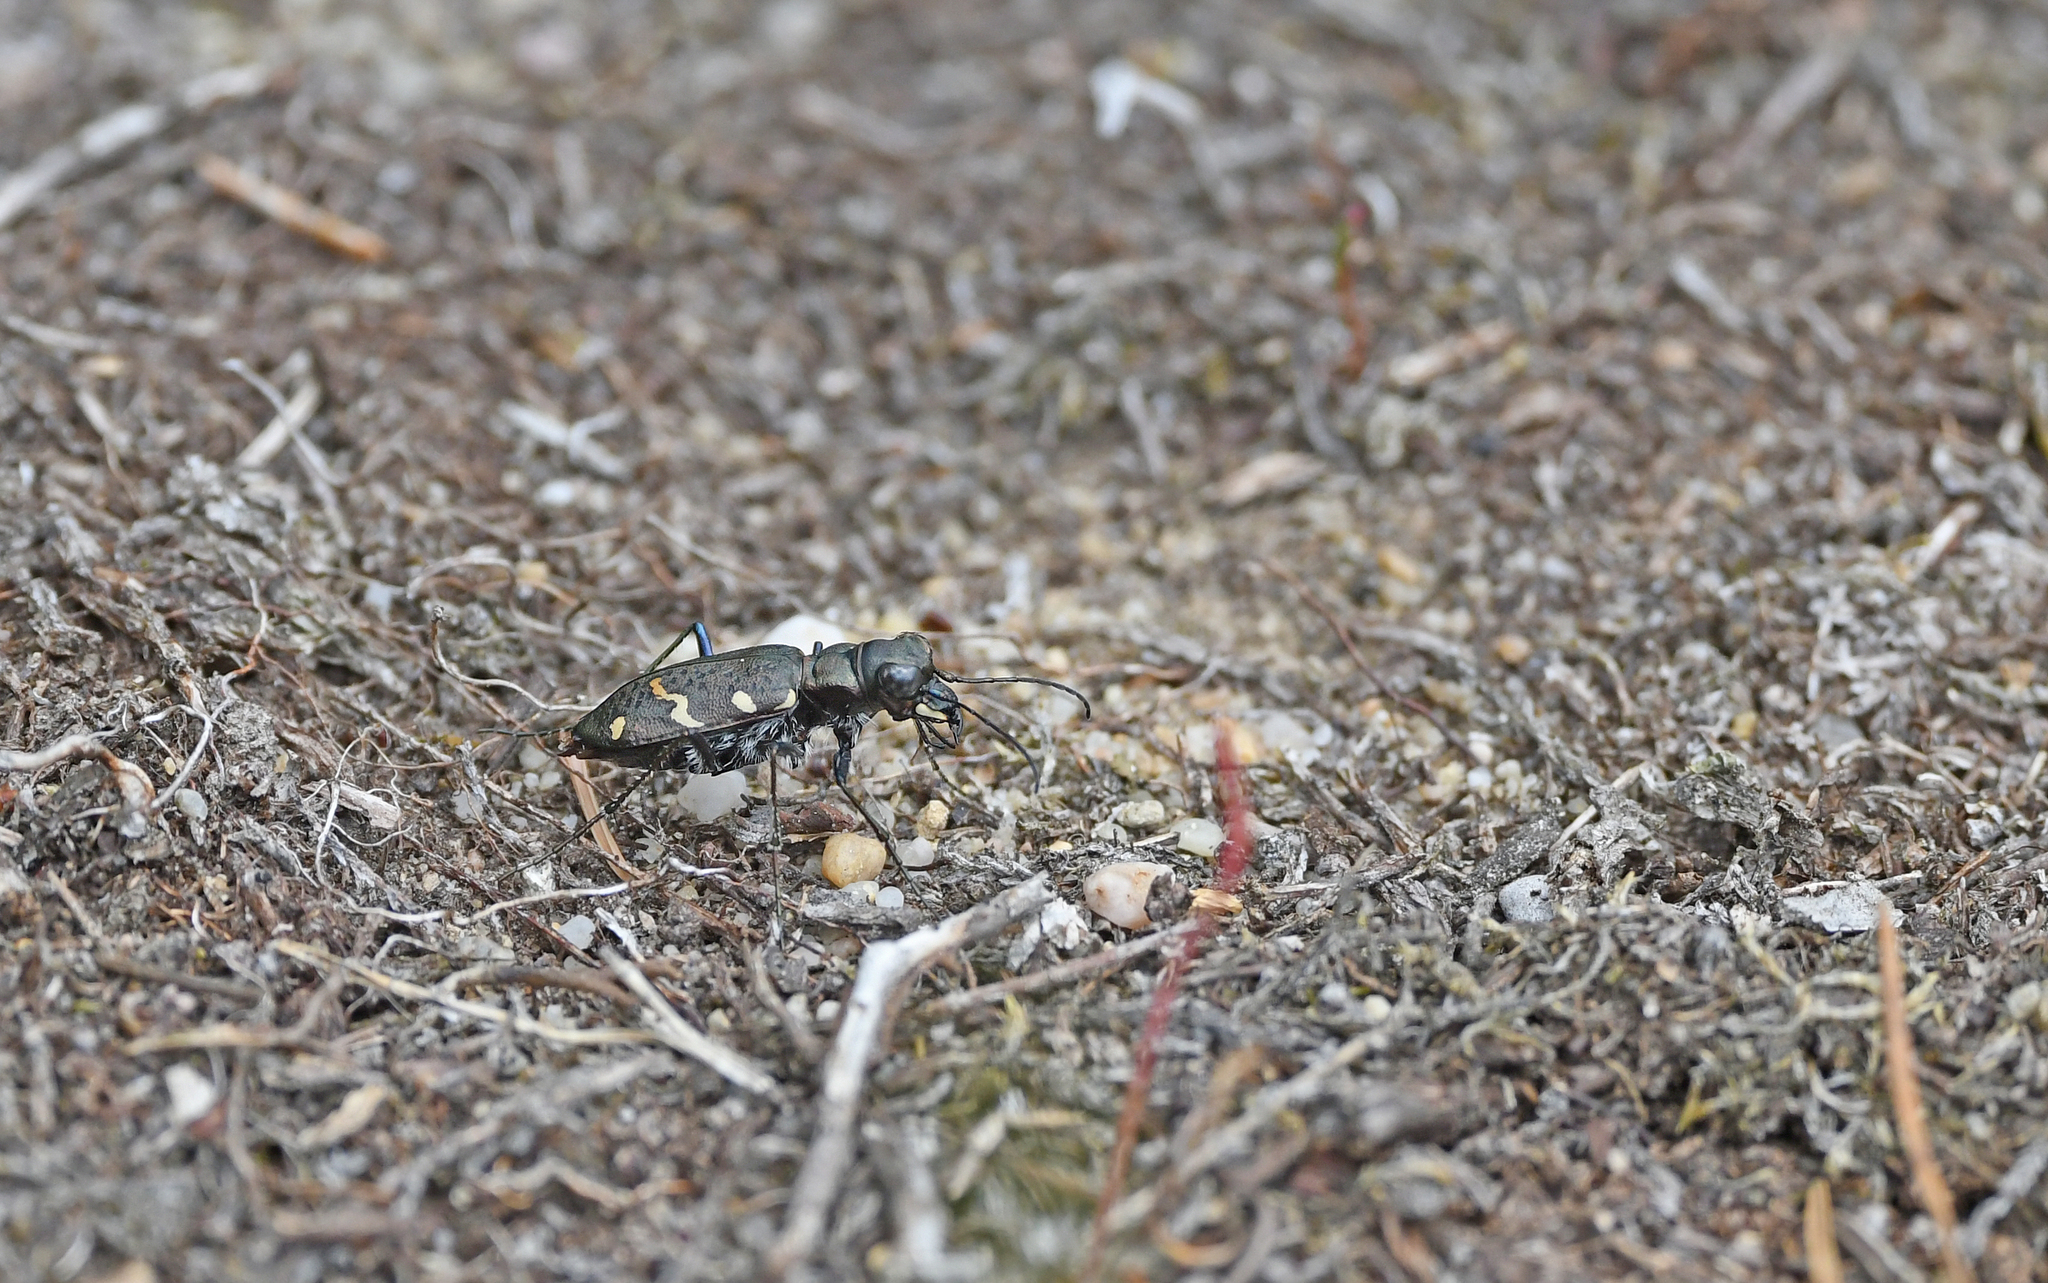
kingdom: Animalia
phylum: Arthropoda
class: Insecta
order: Coleoptera
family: Carabidae
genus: Cicindela
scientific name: Cicindela sylvatica
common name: Heath tiger beetle
